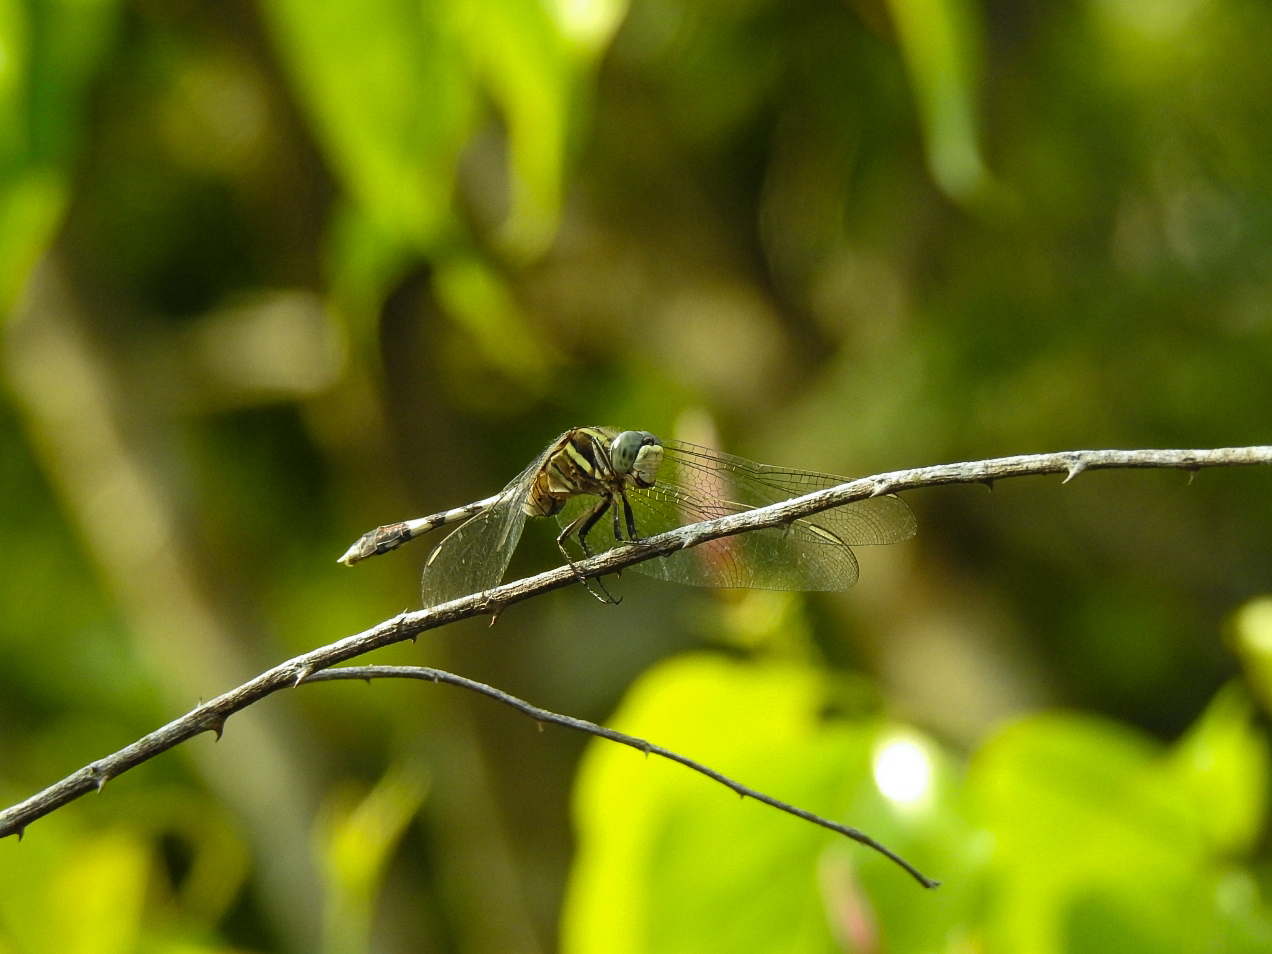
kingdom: Animalia
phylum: Arthropoda
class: Insecta
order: Odonata
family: Libellulidae
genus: Orthetrum
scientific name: Orthetrum sabina
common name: Slender skimmer
